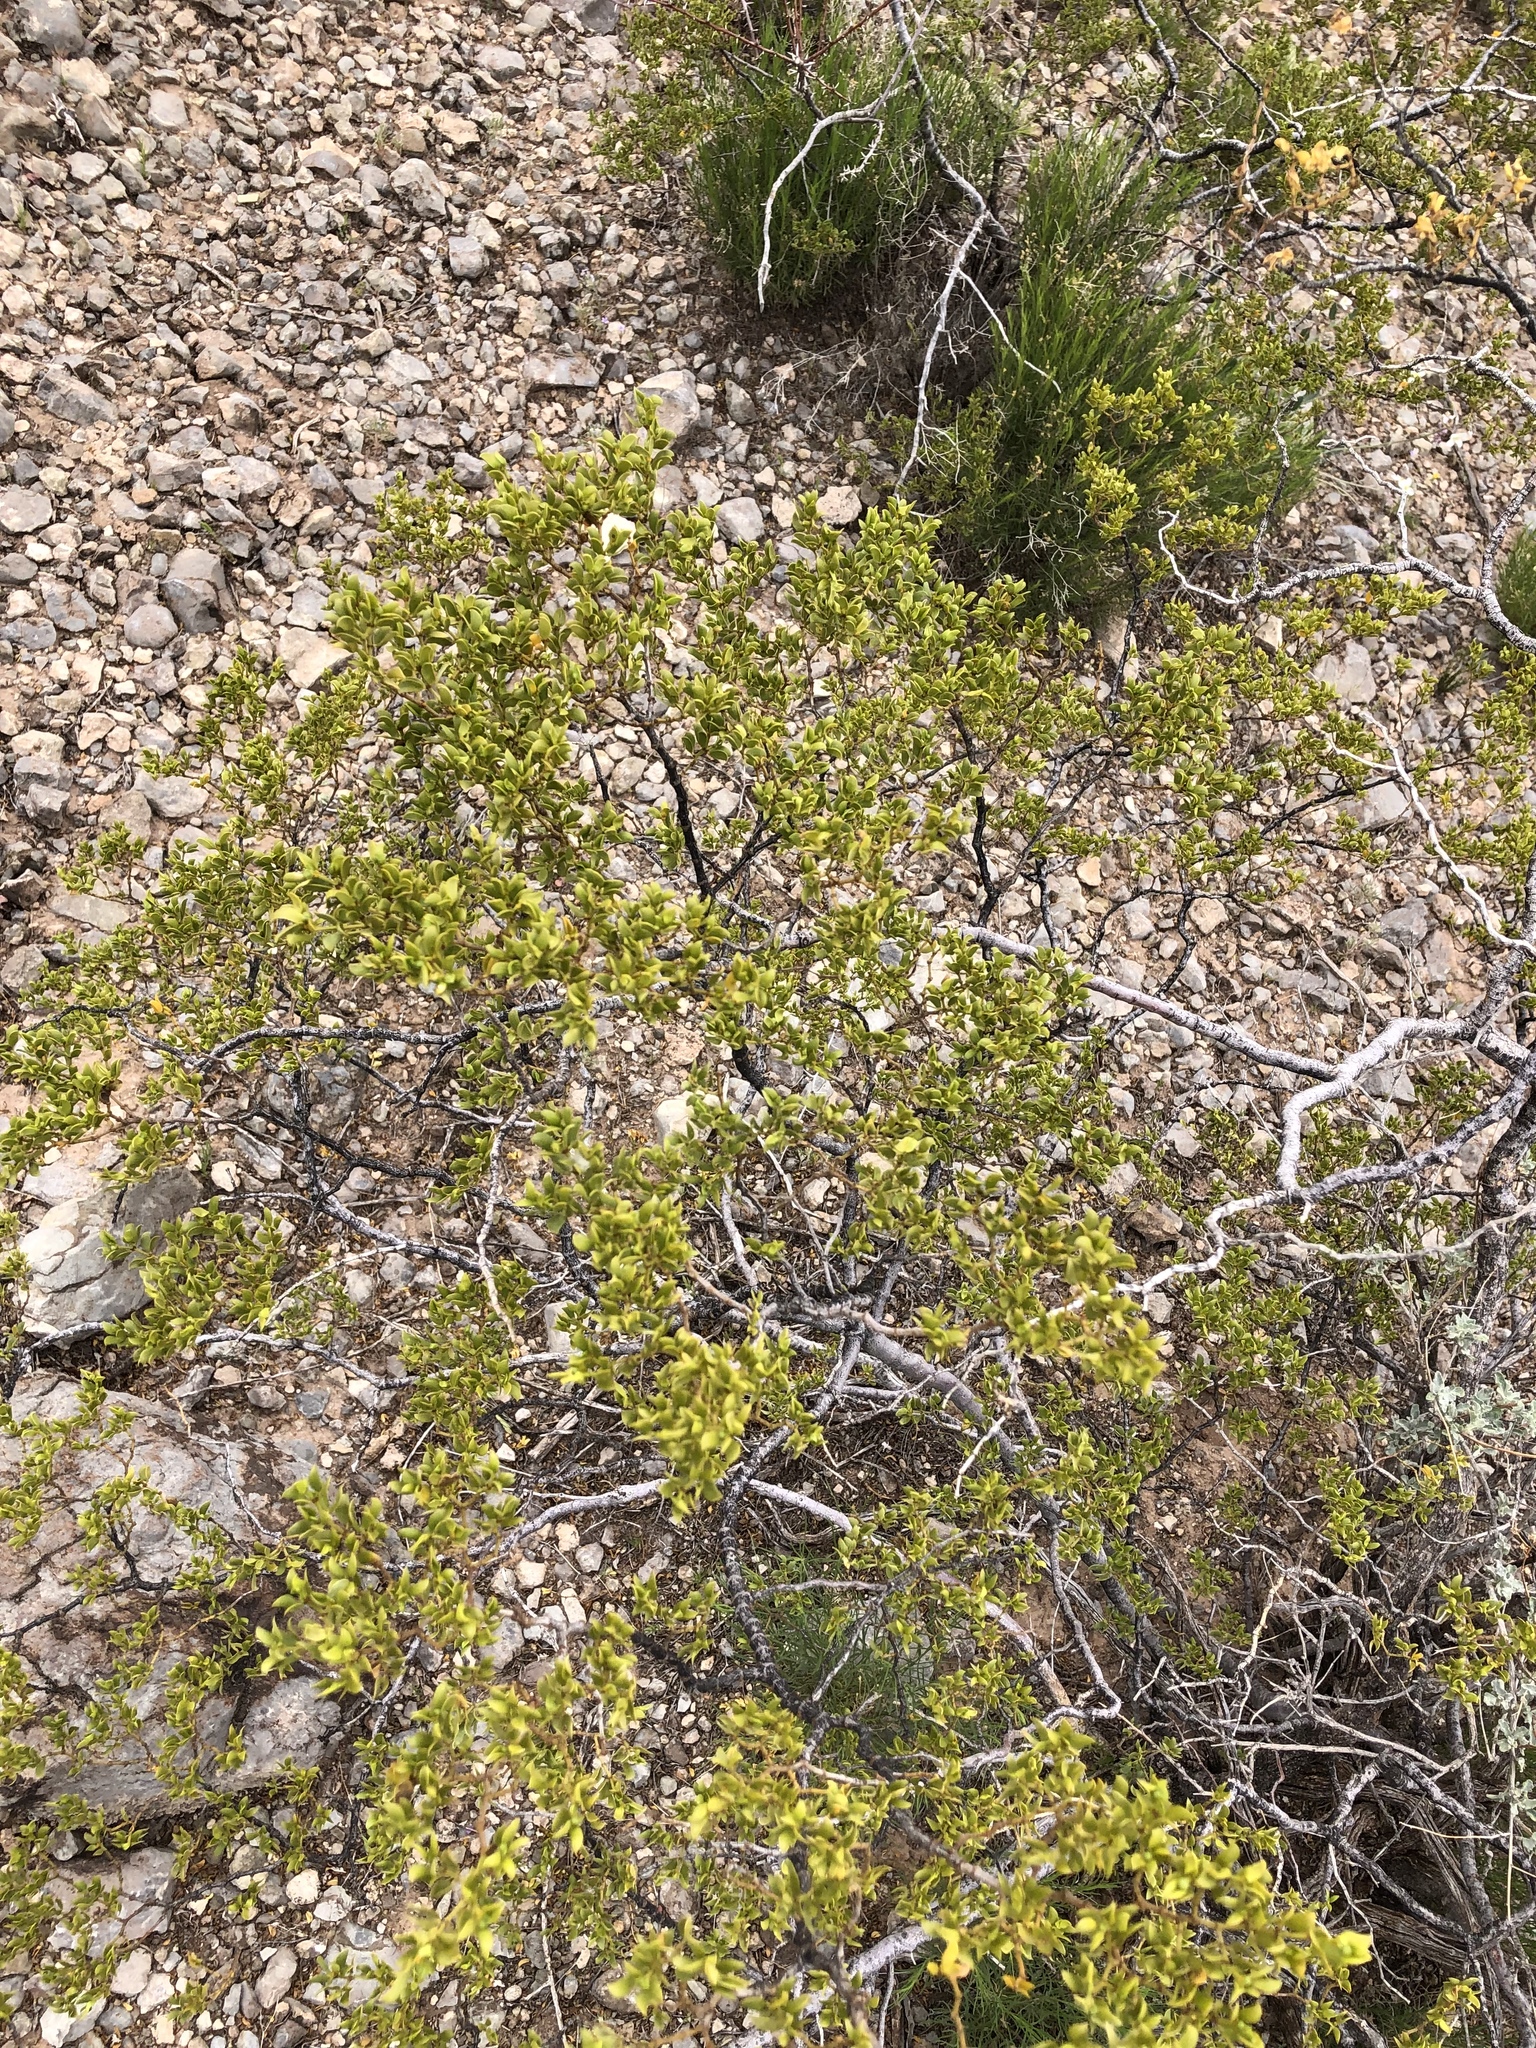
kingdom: Plantae
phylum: Tracheophyta
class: Magnoliopsida
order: Zygophyllales
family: Zygophyllaceae
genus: Larrea
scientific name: Larrea tridentata
